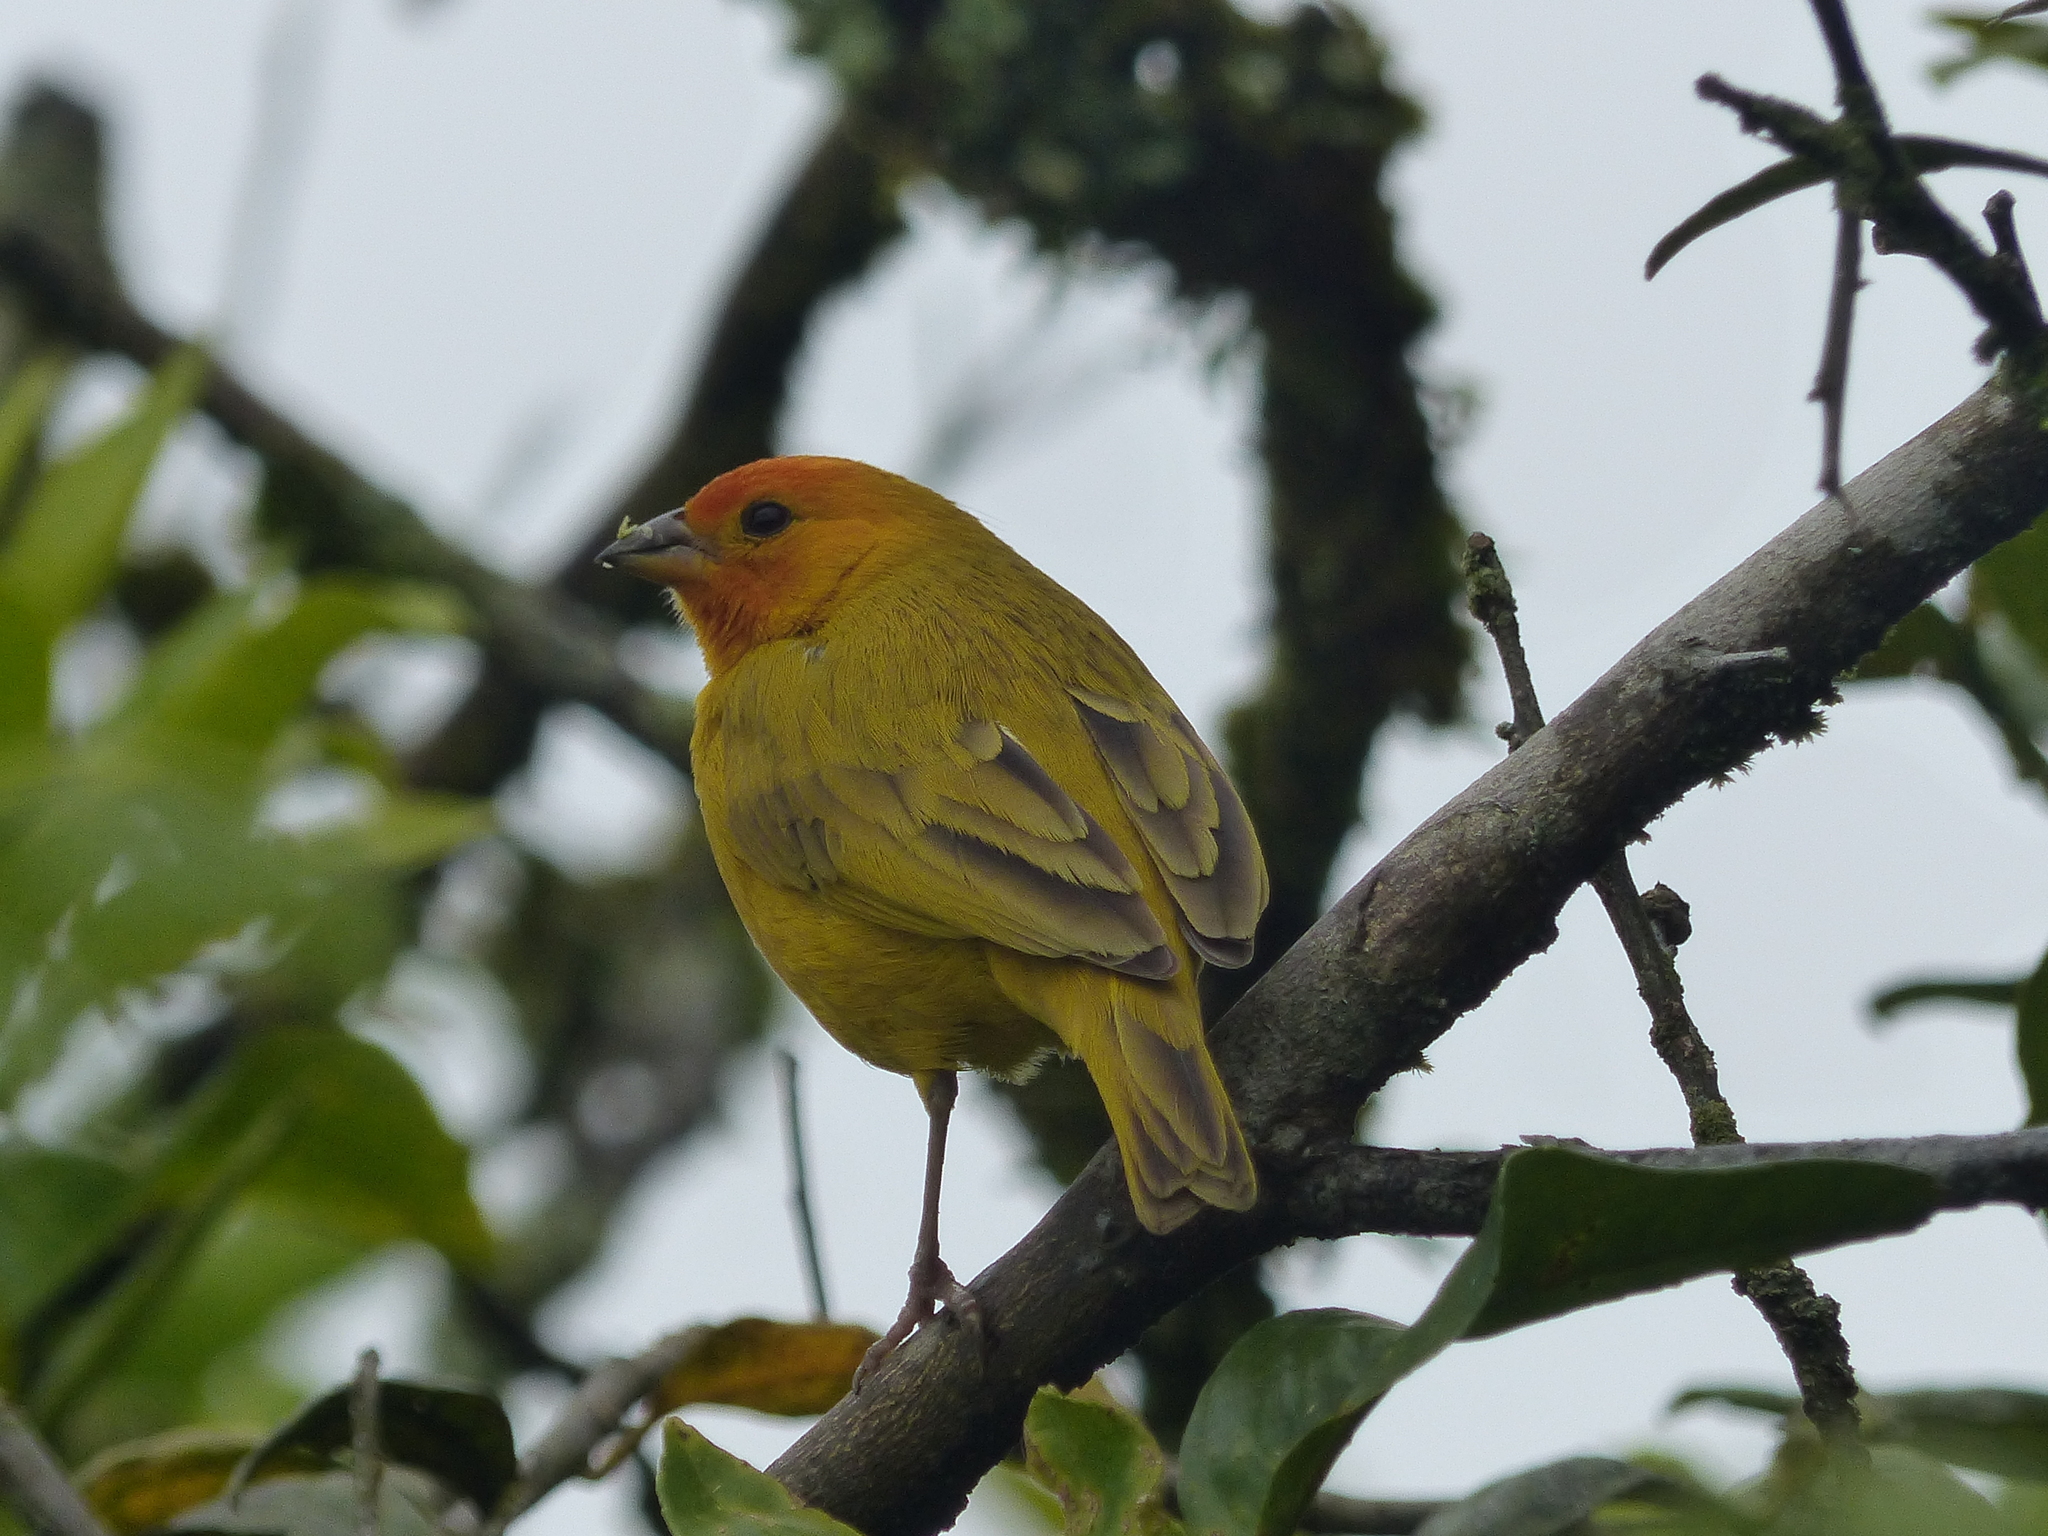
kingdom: Animalia
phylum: Chordata
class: Aves
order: Passeriformes
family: Thraupidae
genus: Sicalis
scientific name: Sicalis flaveola
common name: Saffron finch
